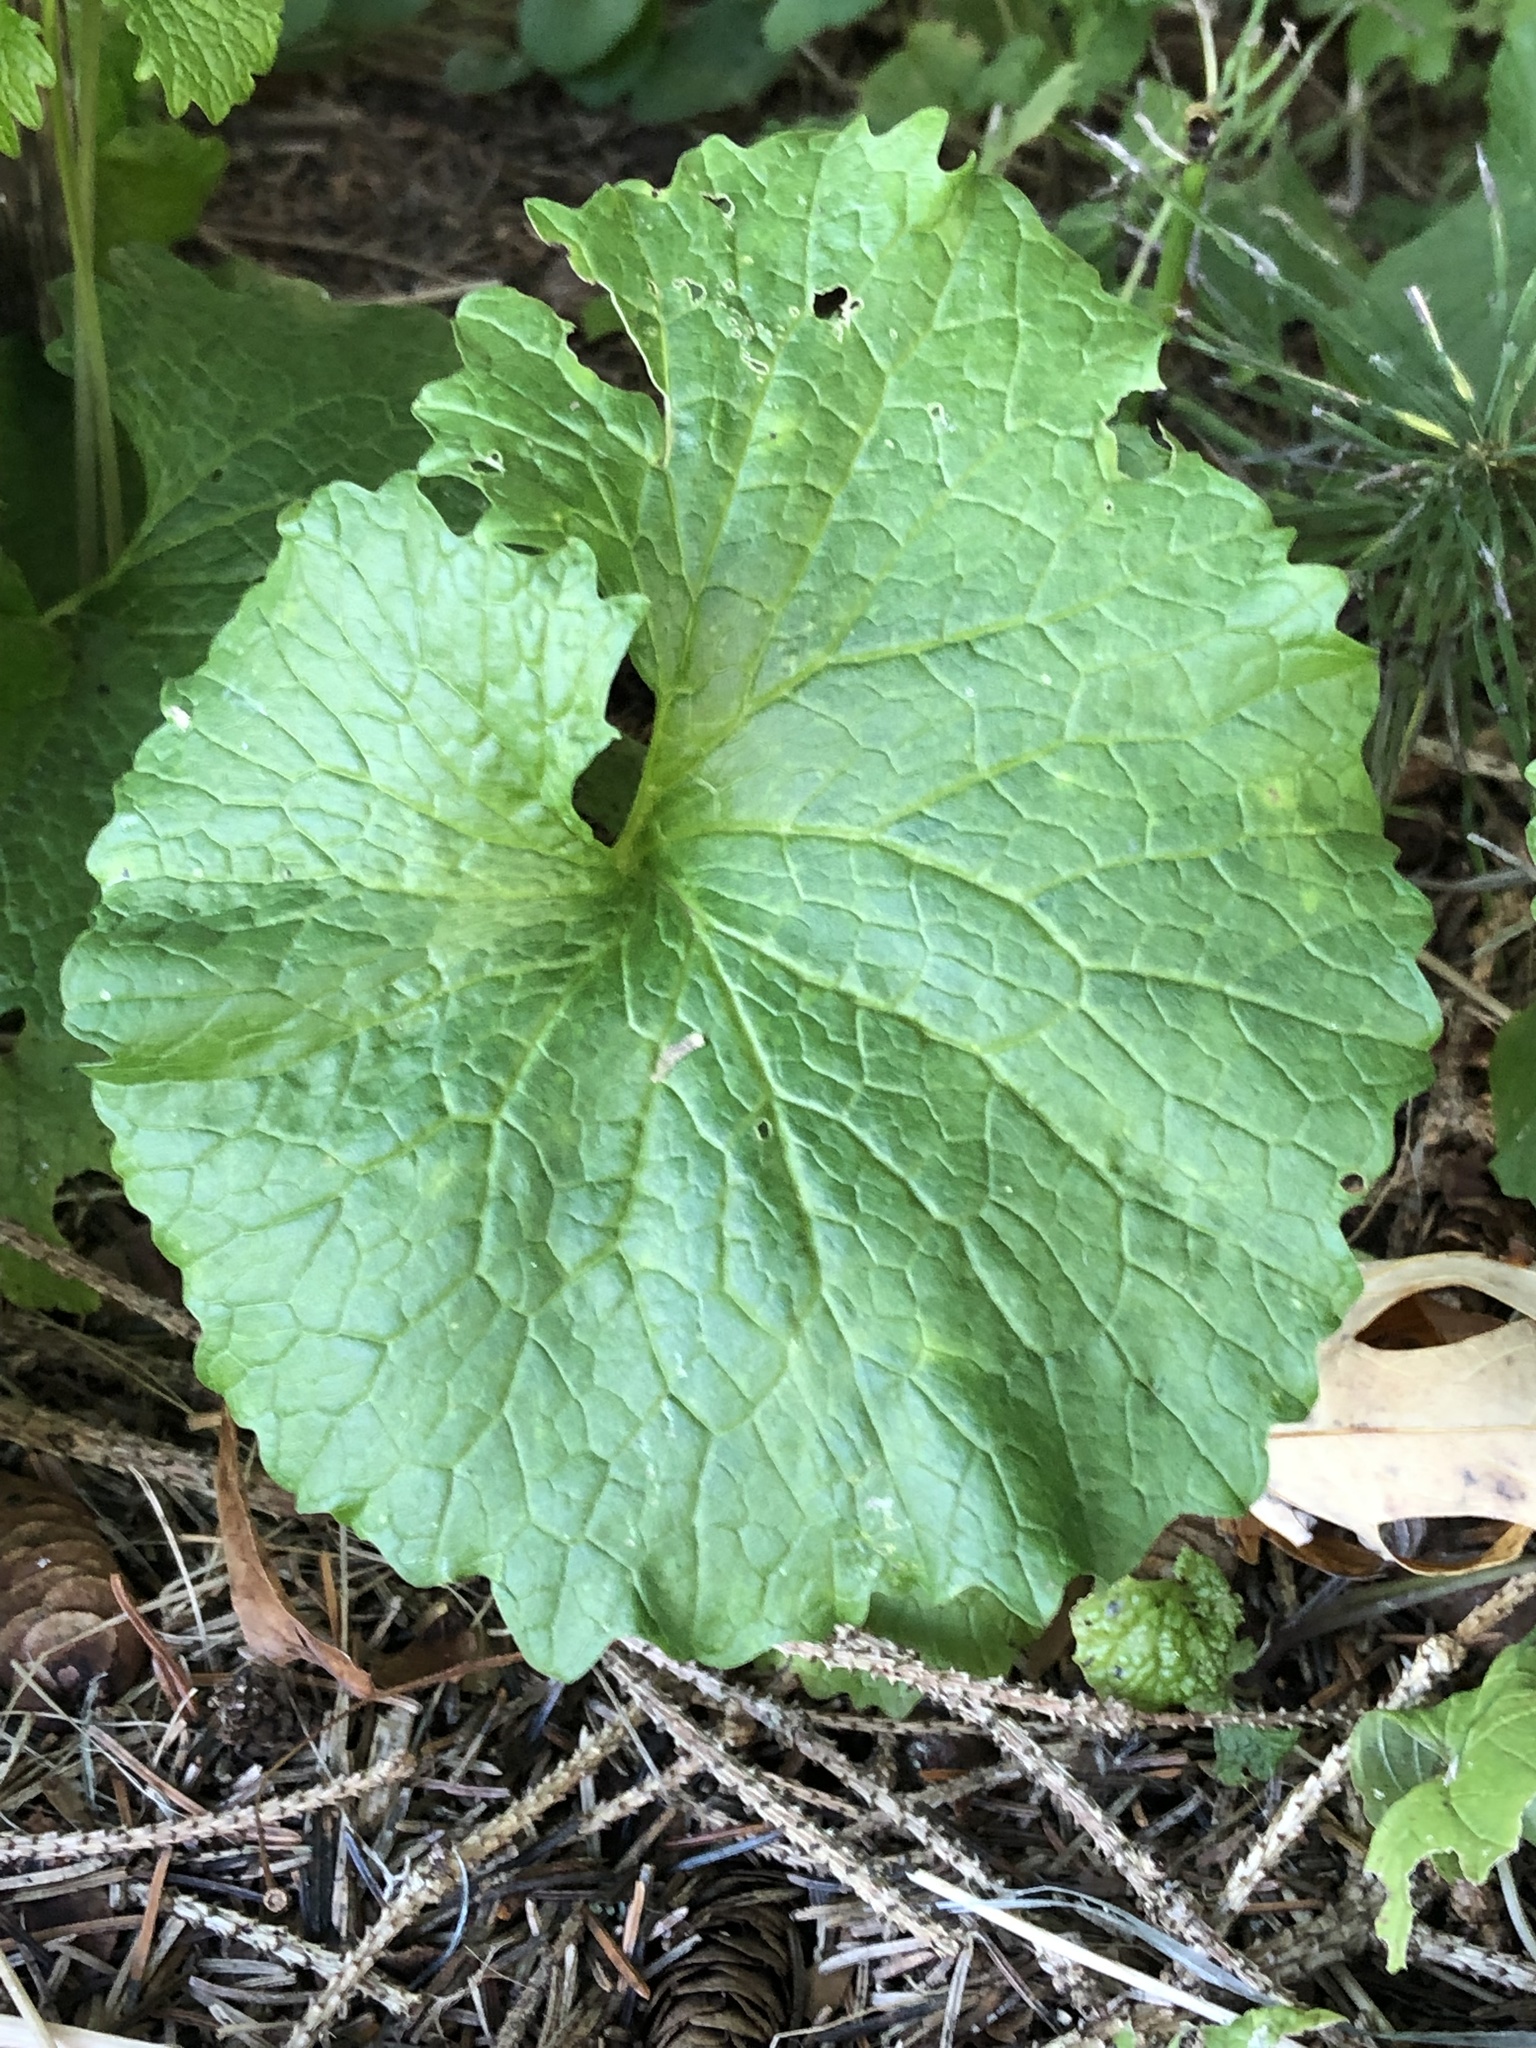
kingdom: Plantae
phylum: Tracheophyta
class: Magnoliopsida
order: Brassicales
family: Brassicaceae
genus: Alliaria
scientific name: Alliaria petiolata
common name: Garlic mustard
